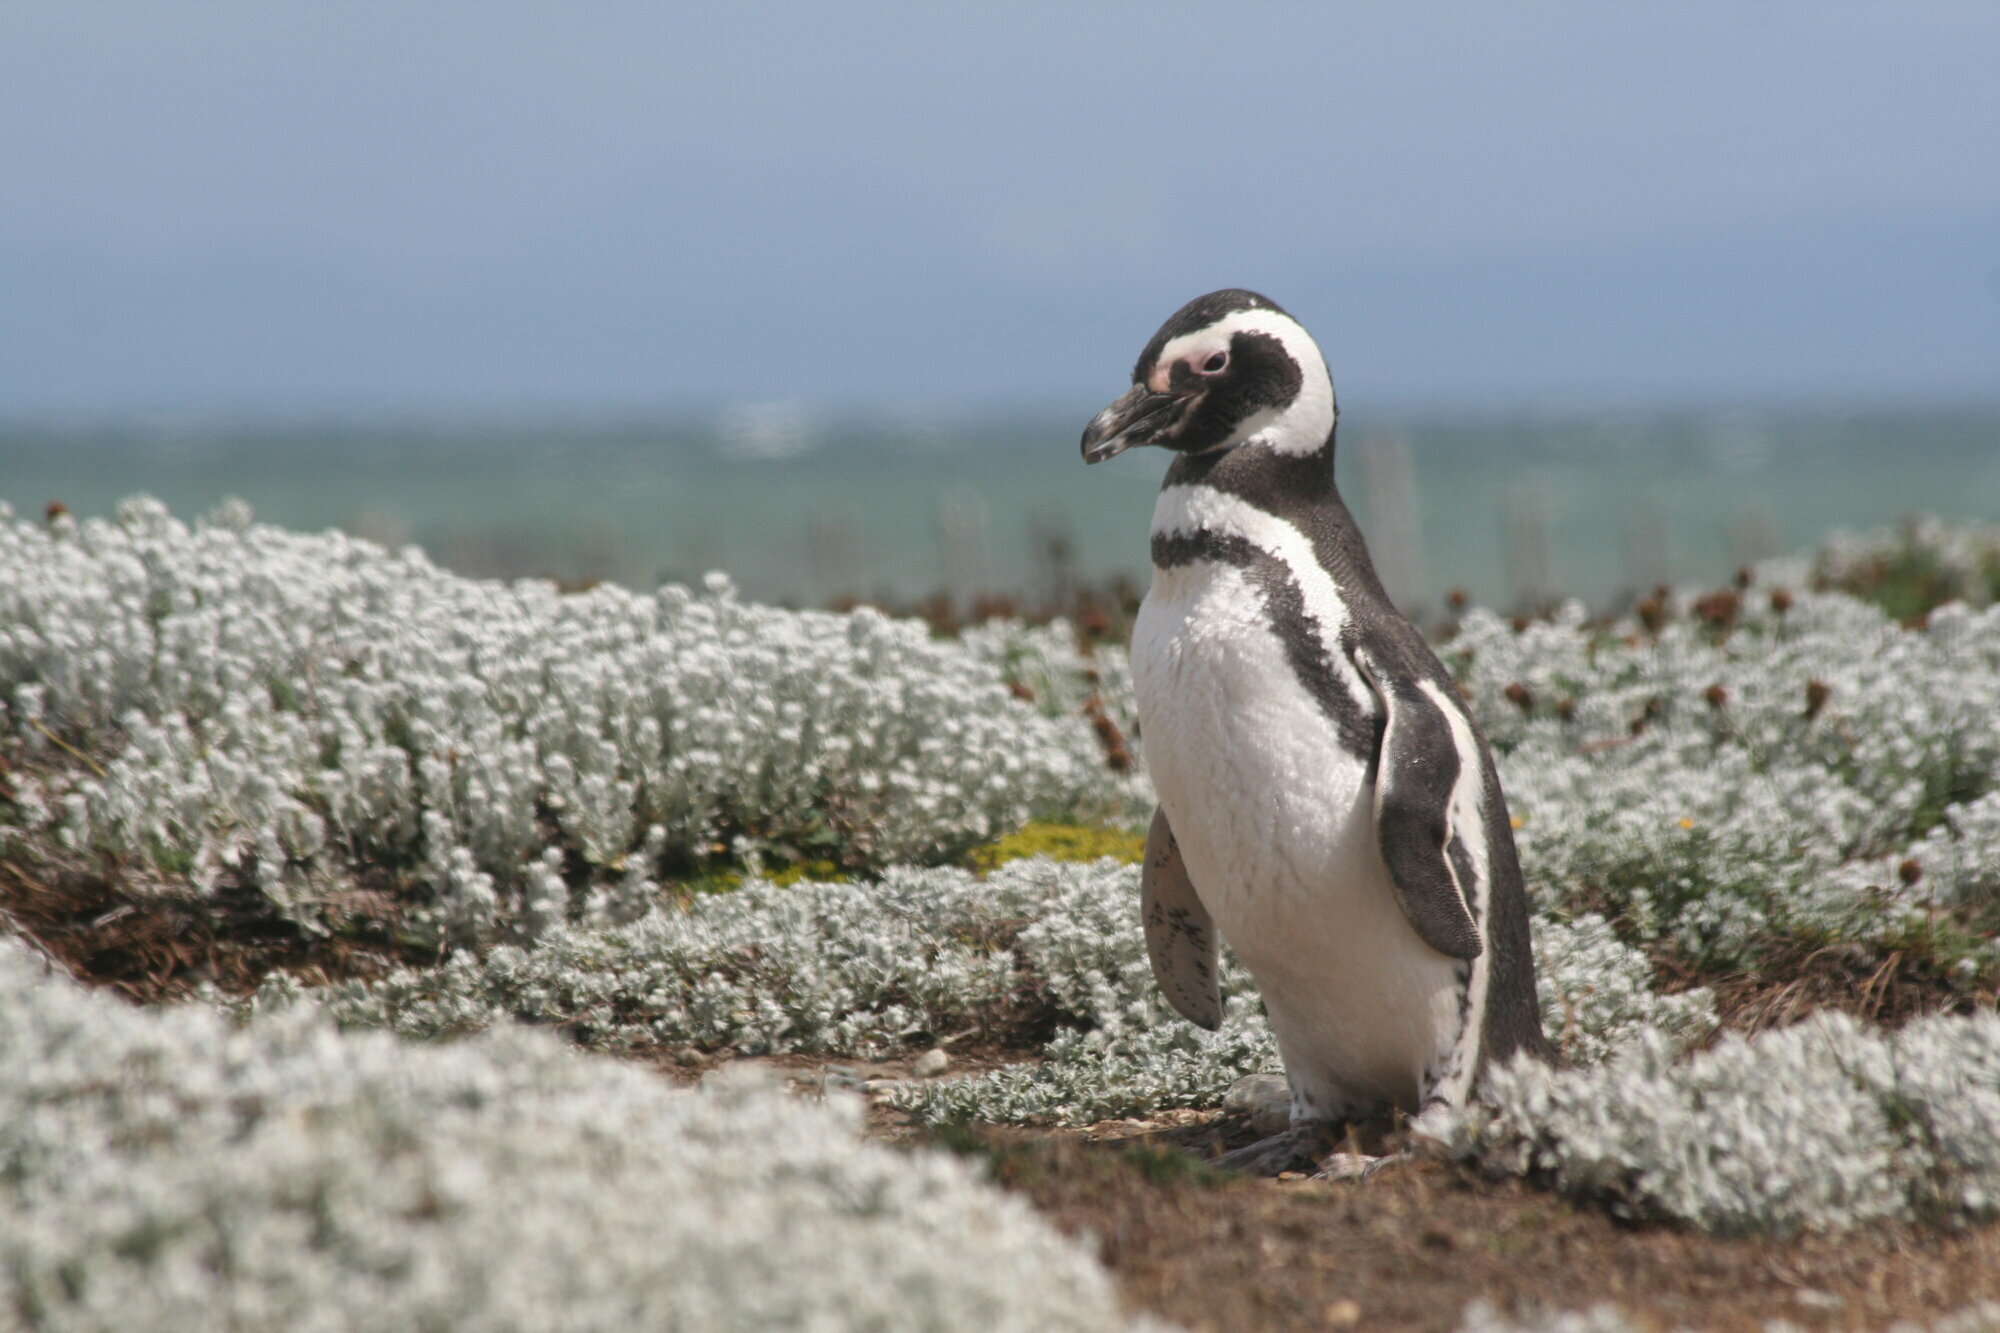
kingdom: Animalia
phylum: Chordata
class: Aves
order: Sphenisciformes
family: Spheniscidae
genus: Spheniscus
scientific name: Spheniscus magellanicus
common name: Magellanic penguin
